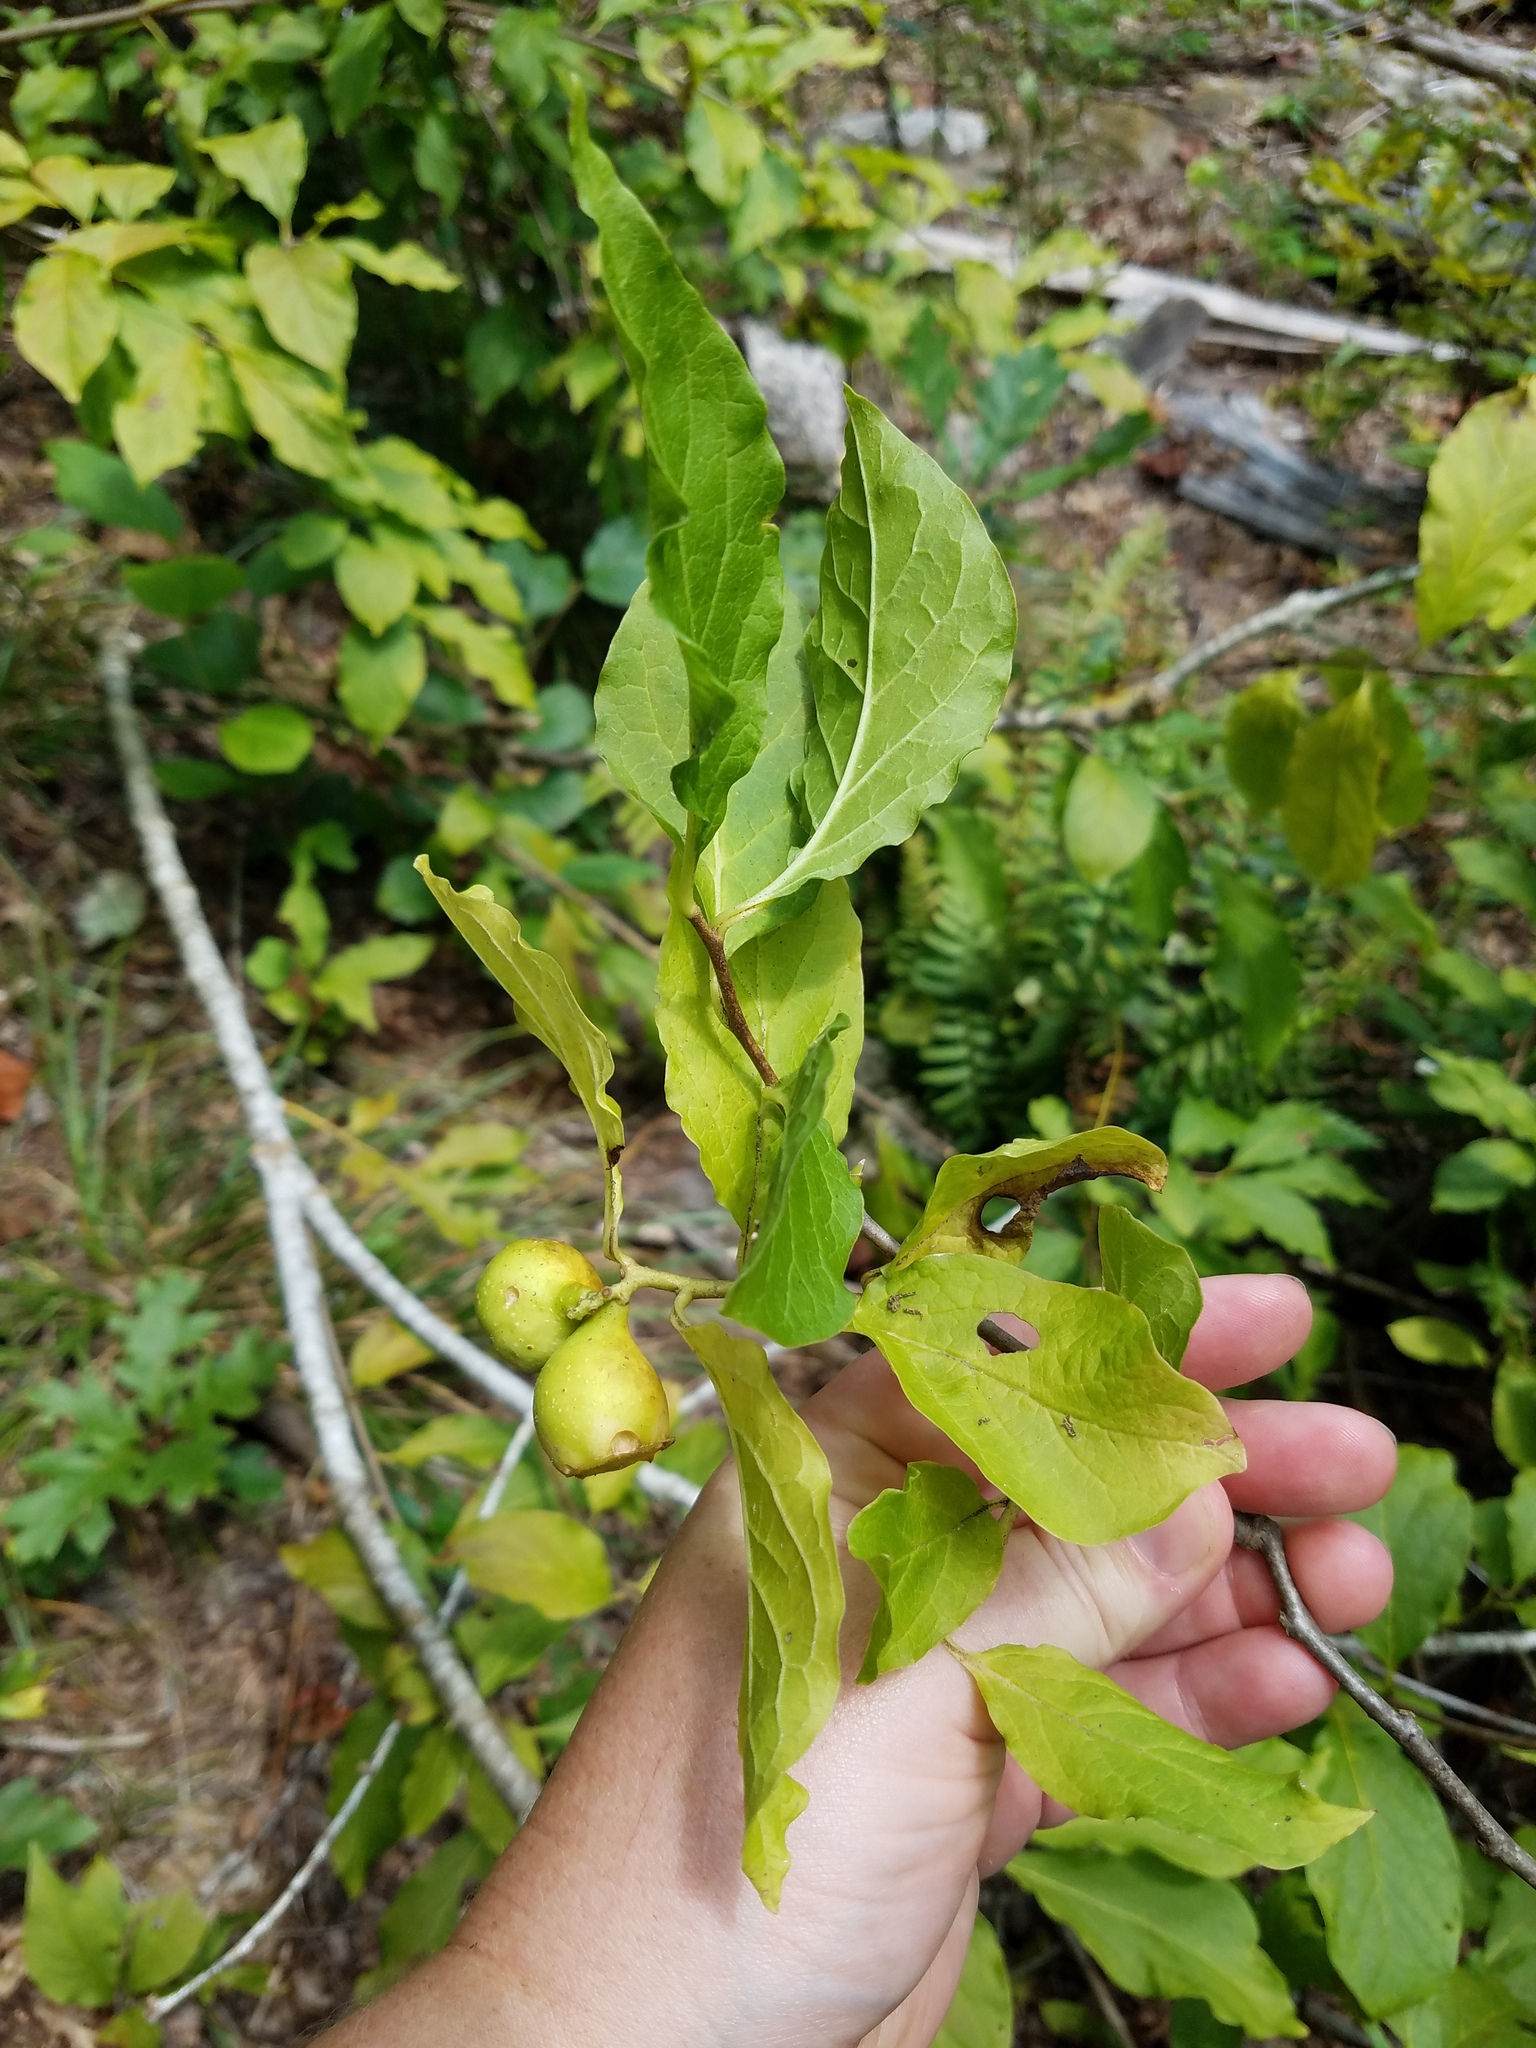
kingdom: Plantae
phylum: Tracheophyta
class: Magnoliopsida
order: Santalales
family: Cervantesiaceae
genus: Pyrularia
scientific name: Pyrularia pubera
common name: Oilnut
